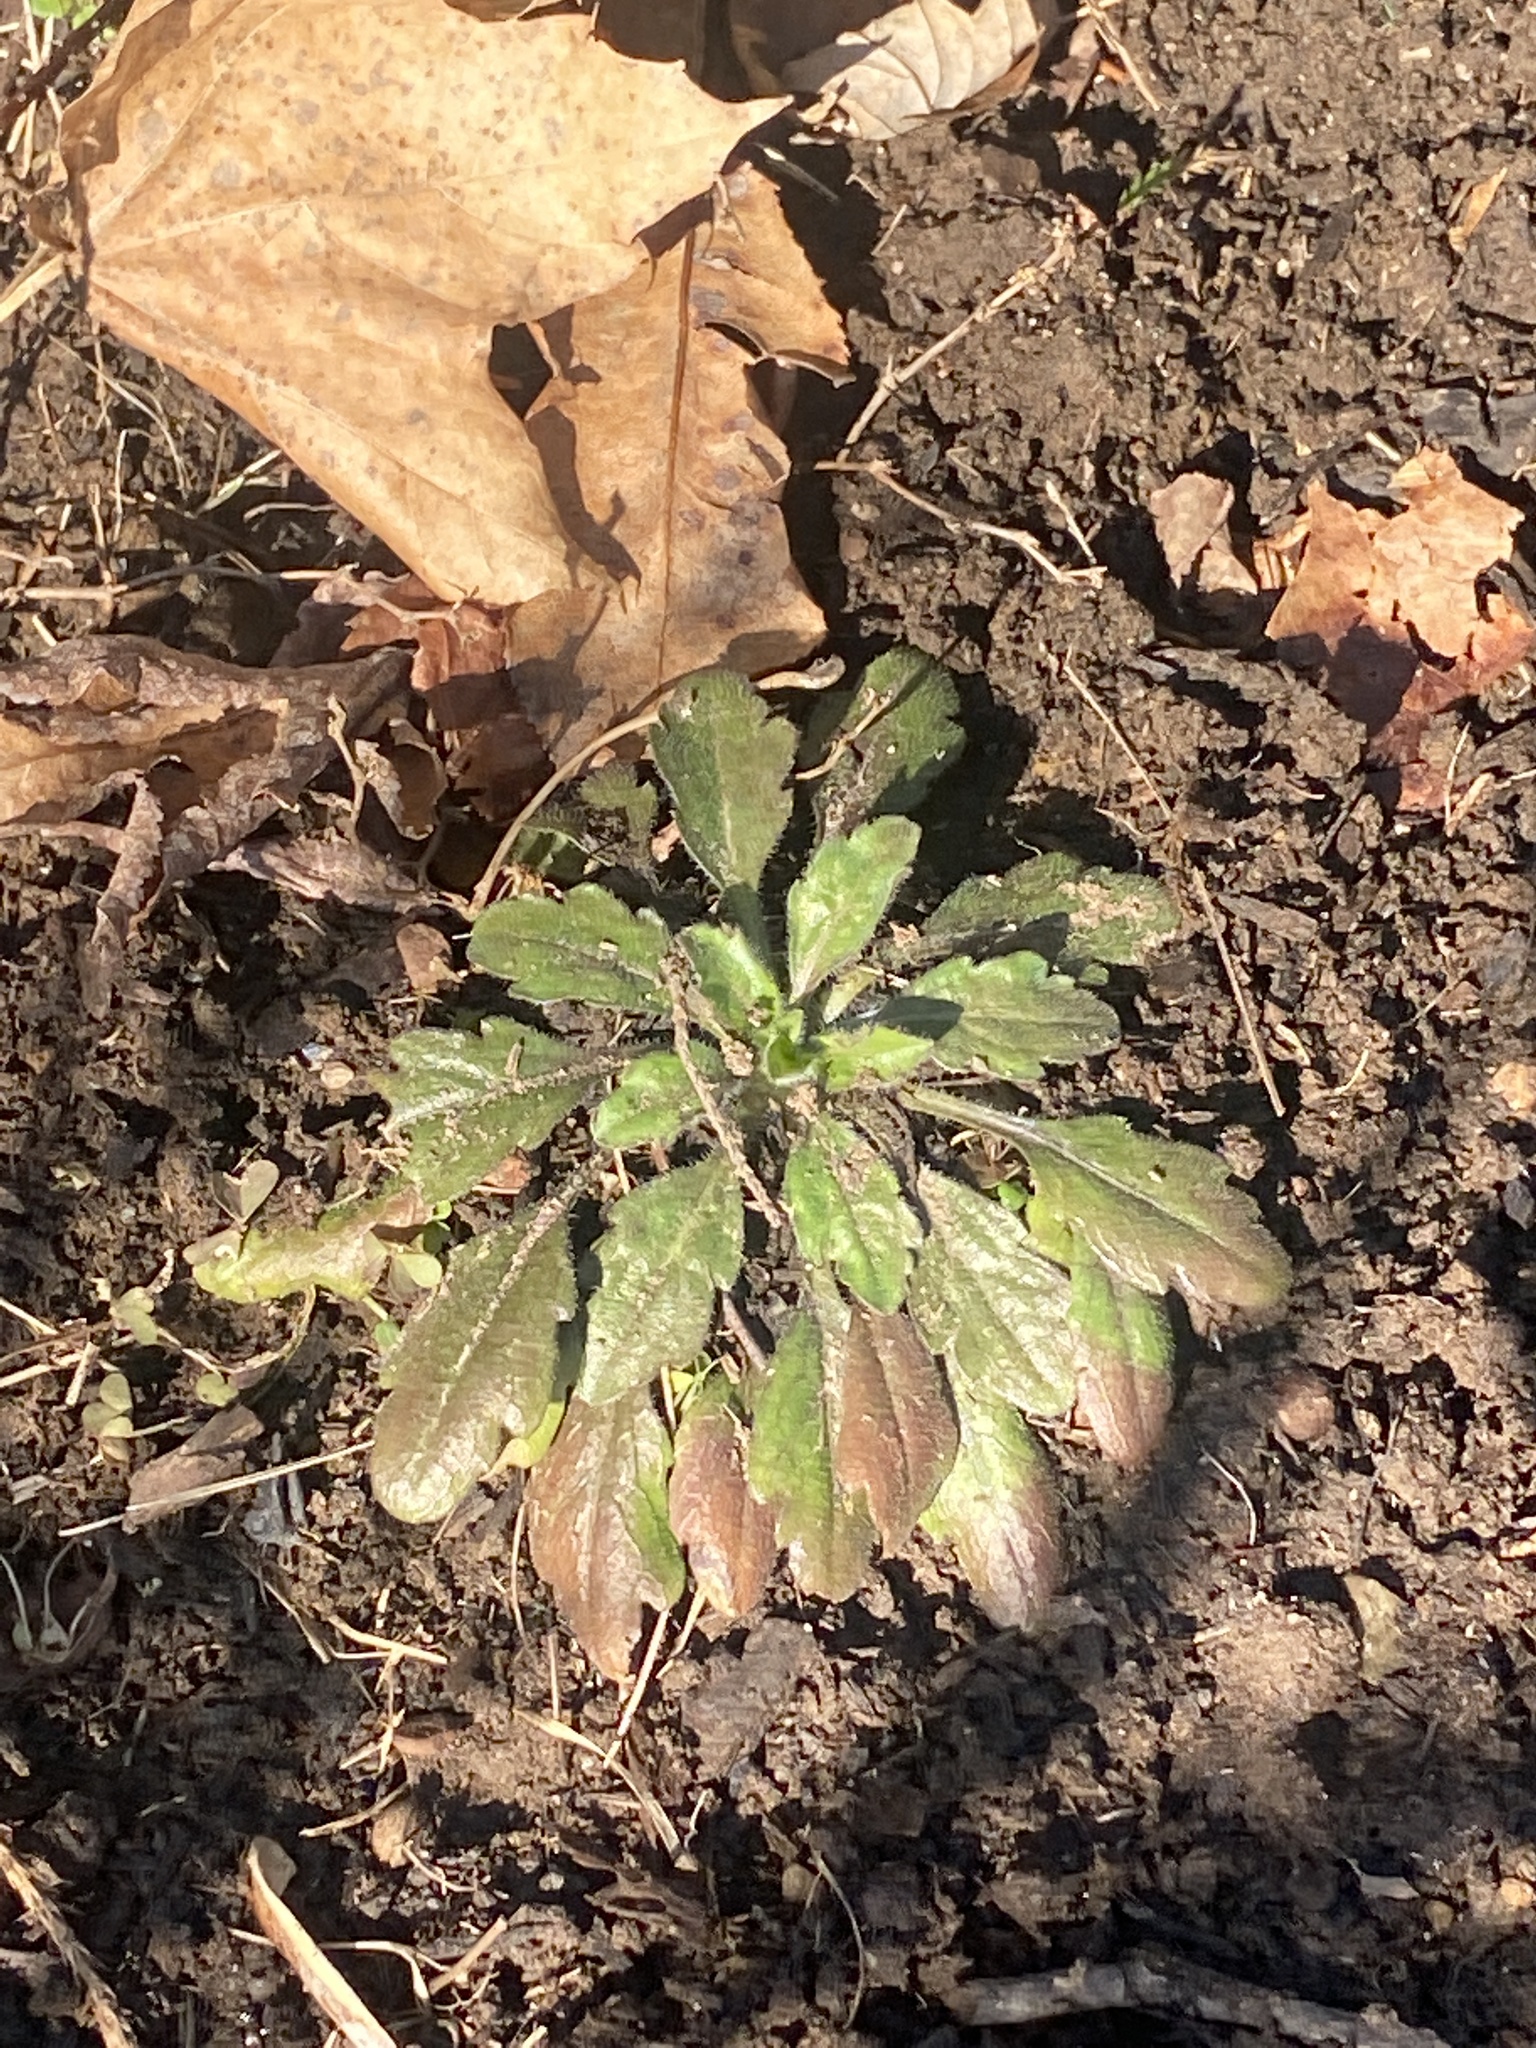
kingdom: Plantae
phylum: Tracheophyta
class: Magnoliopsida
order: Asterales
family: Asteraceae
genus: Erigeron
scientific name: Erigeron canadensis
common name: Canadian fleabane
